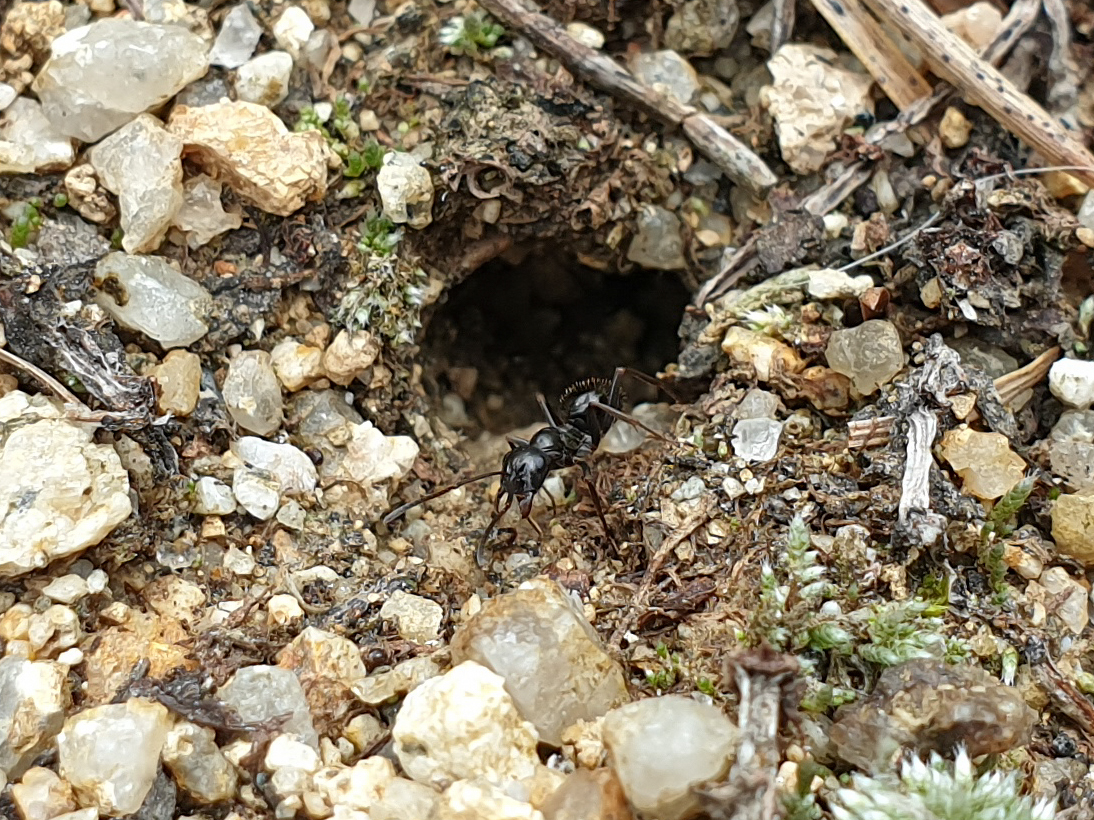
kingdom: Animalia
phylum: Arthropoda
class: Insecta
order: Hymenoptera
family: Formicidae
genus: Formica
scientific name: Formica candida
